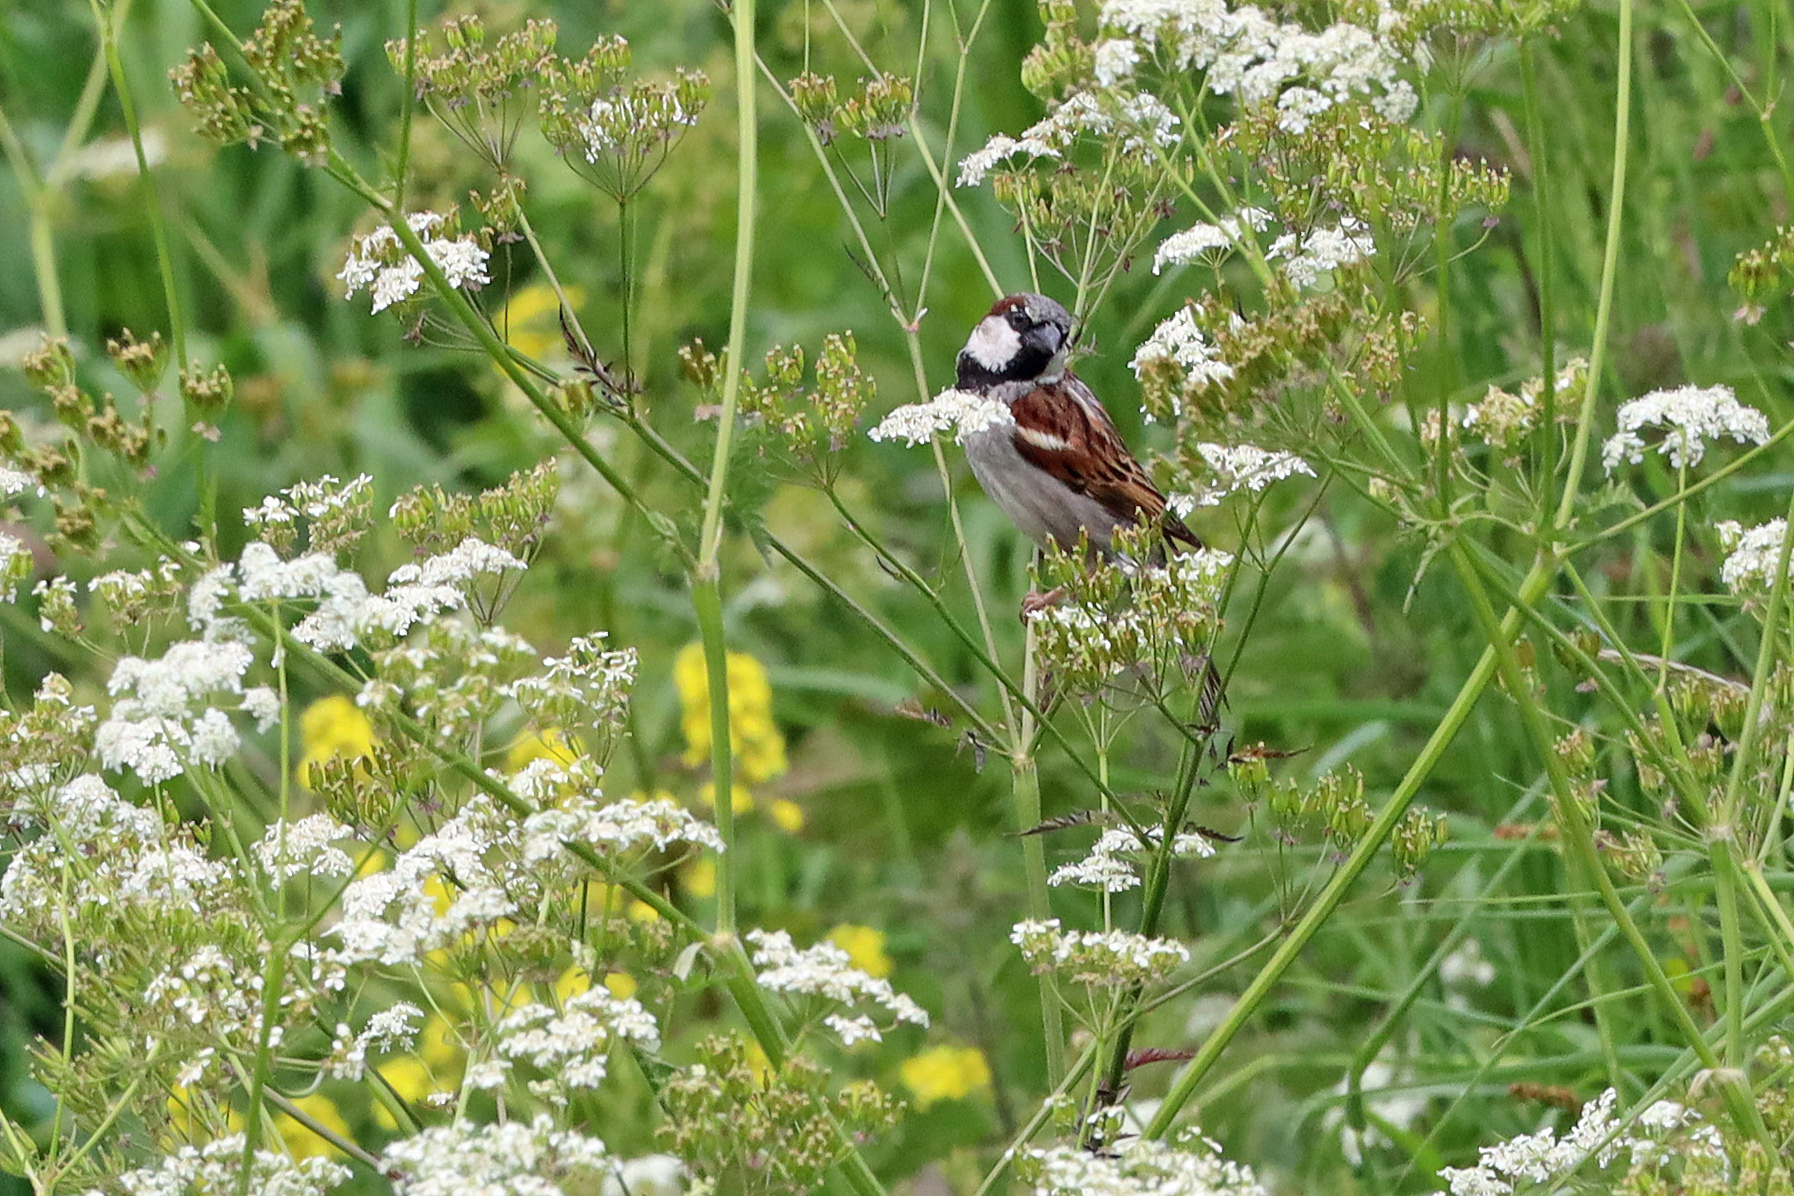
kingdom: Animalia
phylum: Chordata
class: Aves
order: Passeriformes
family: Passeridae
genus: Passer
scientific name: Passer domesticus
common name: House sparrow
